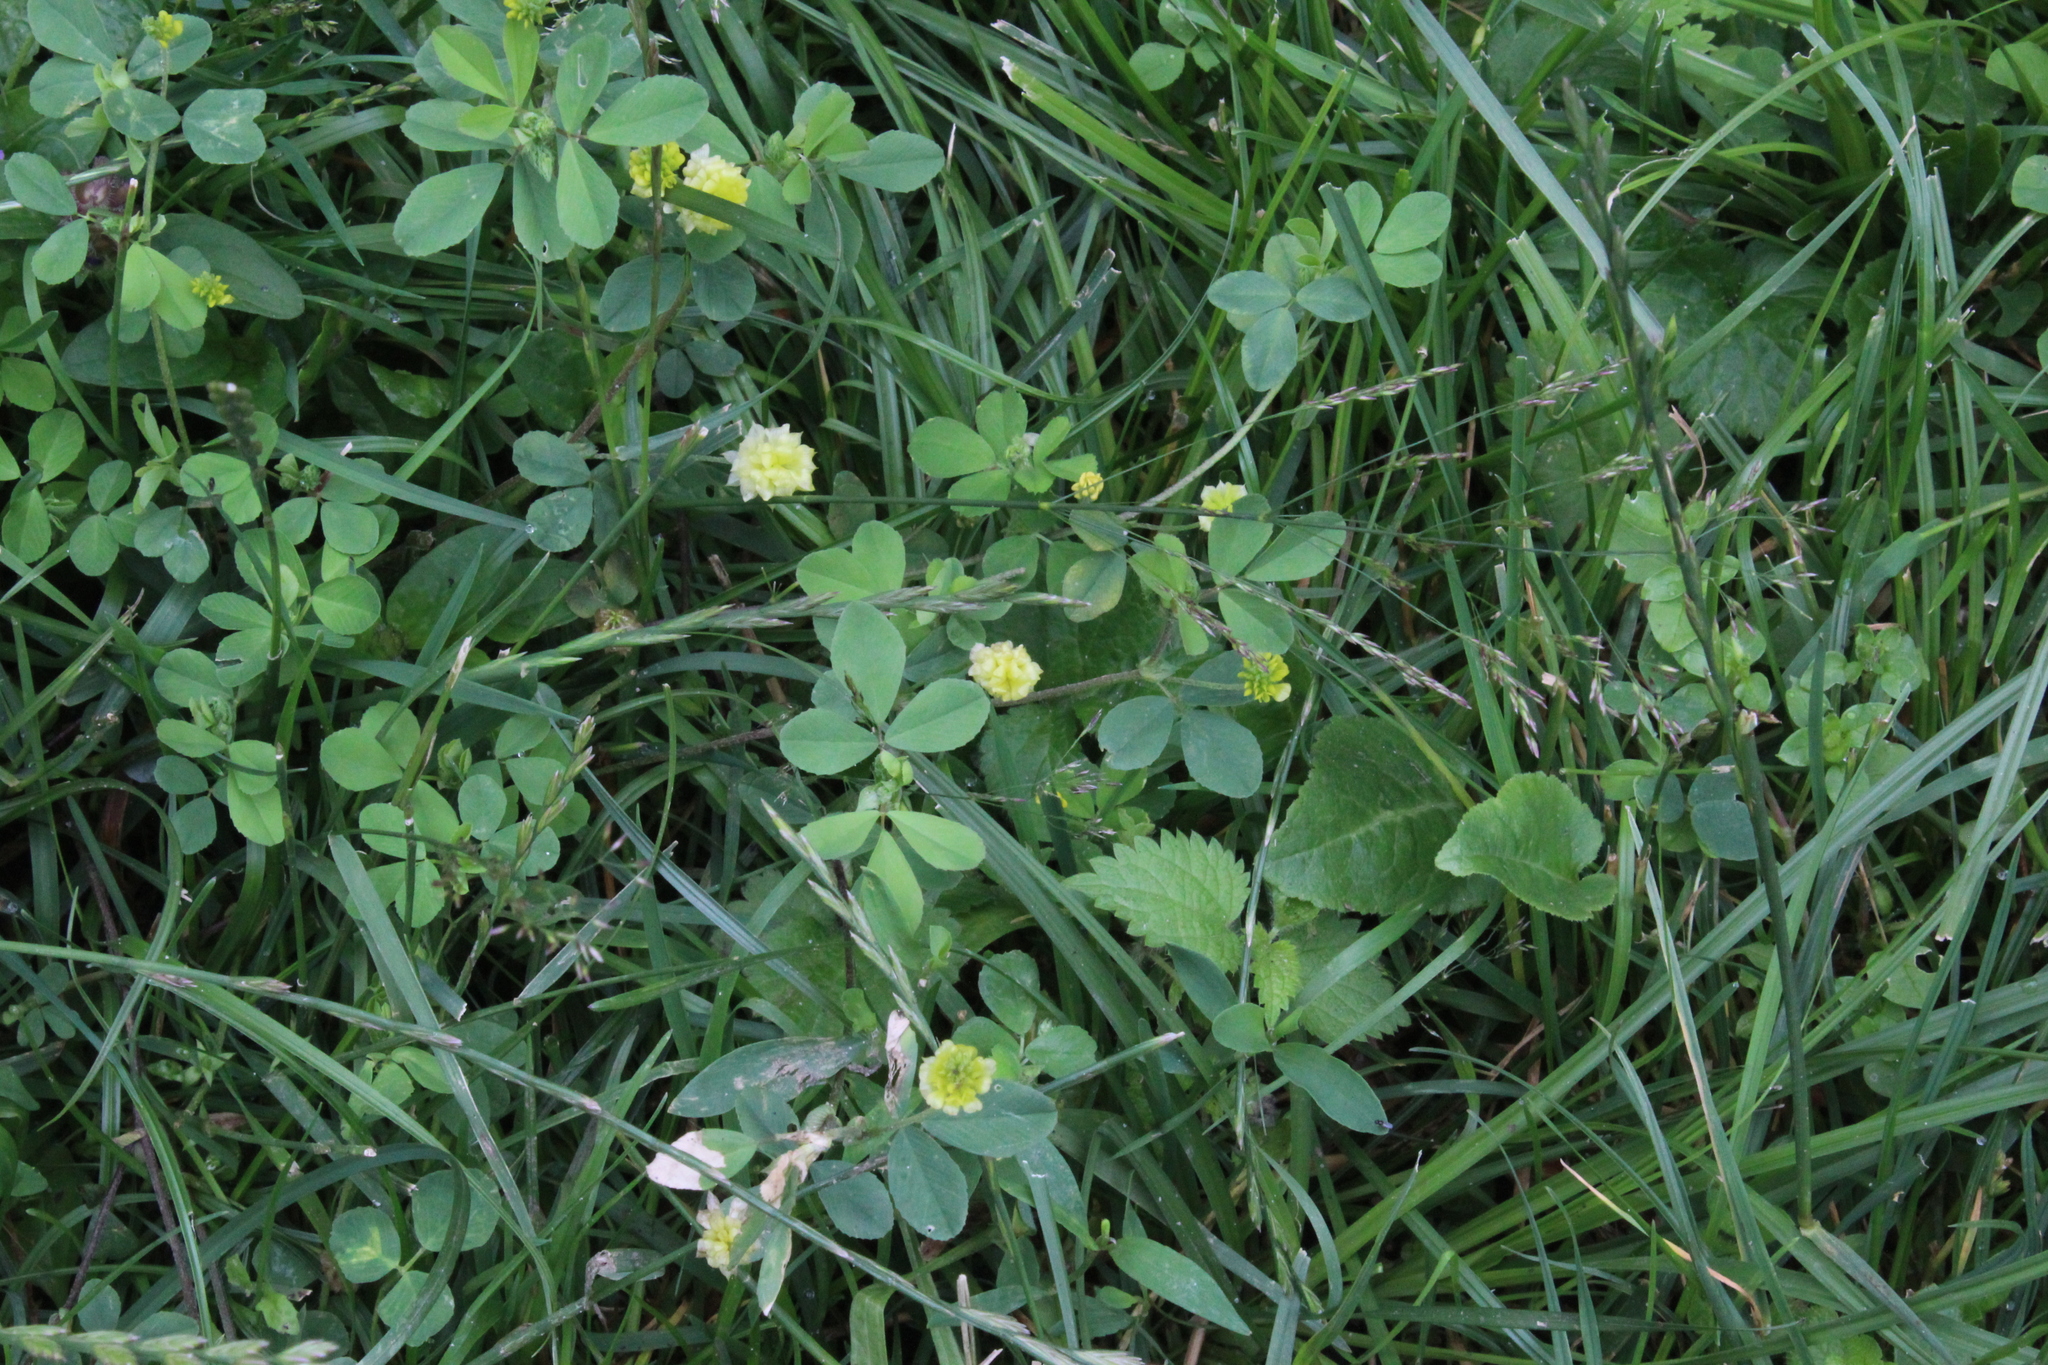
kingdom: Plantae
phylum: Tracheophyta
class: Magnoliopsida
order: Fabales
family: Fabaceae
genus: Trifolium
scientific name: Trifolium campestre
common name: Field clover
